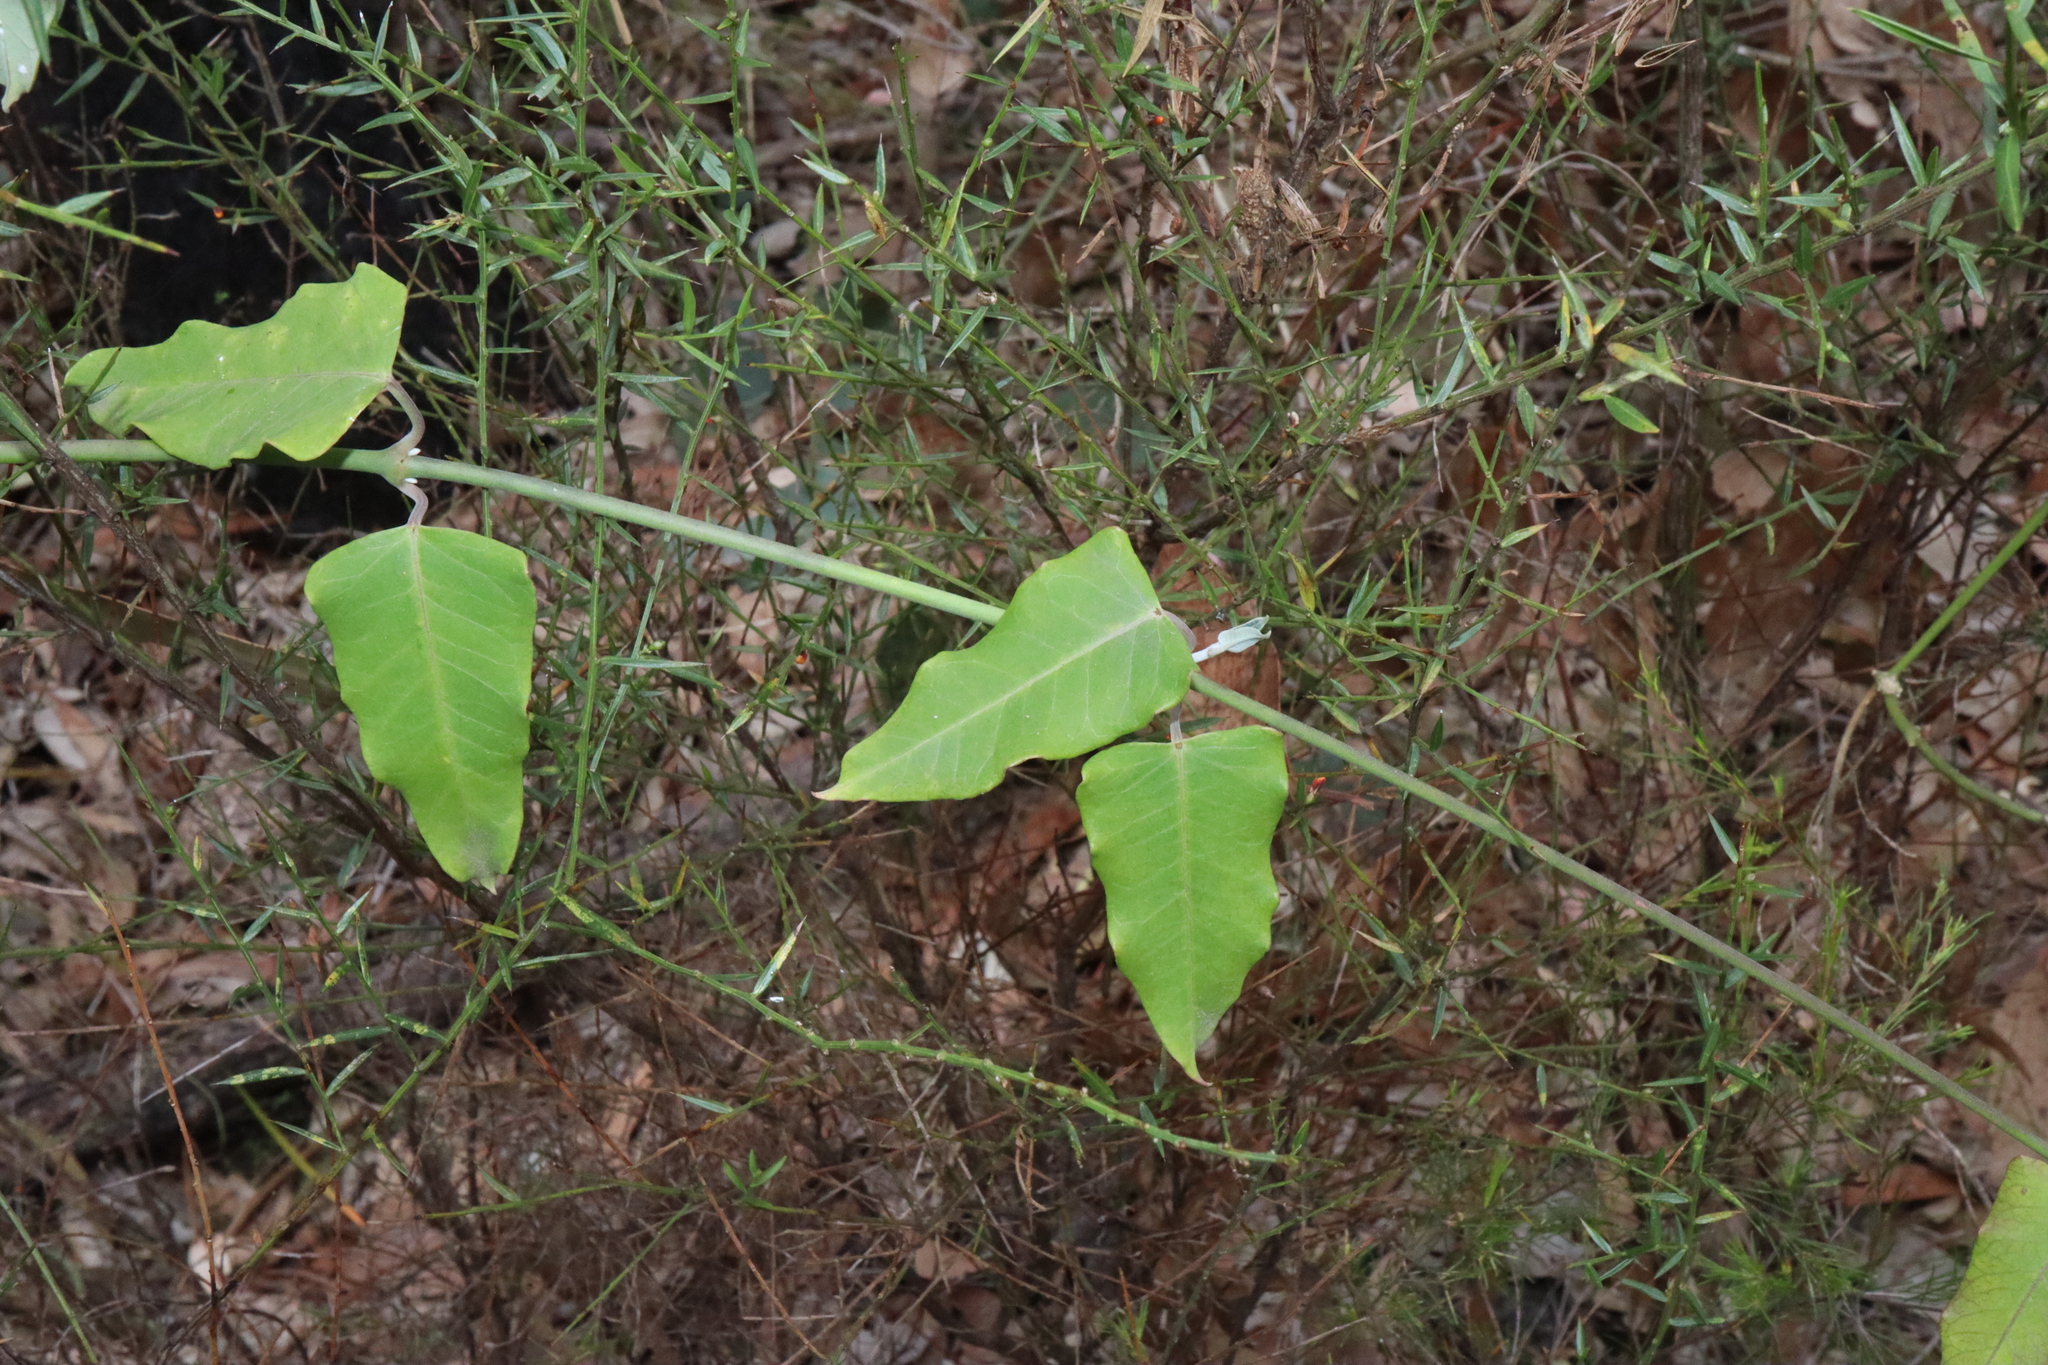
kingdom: Plantae
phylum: Tracheophyta
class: Magnoliopsida
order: Gentianales
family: Apocynaceae
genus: Araujia
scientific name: Araujia sericifera
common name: White bladderflower
